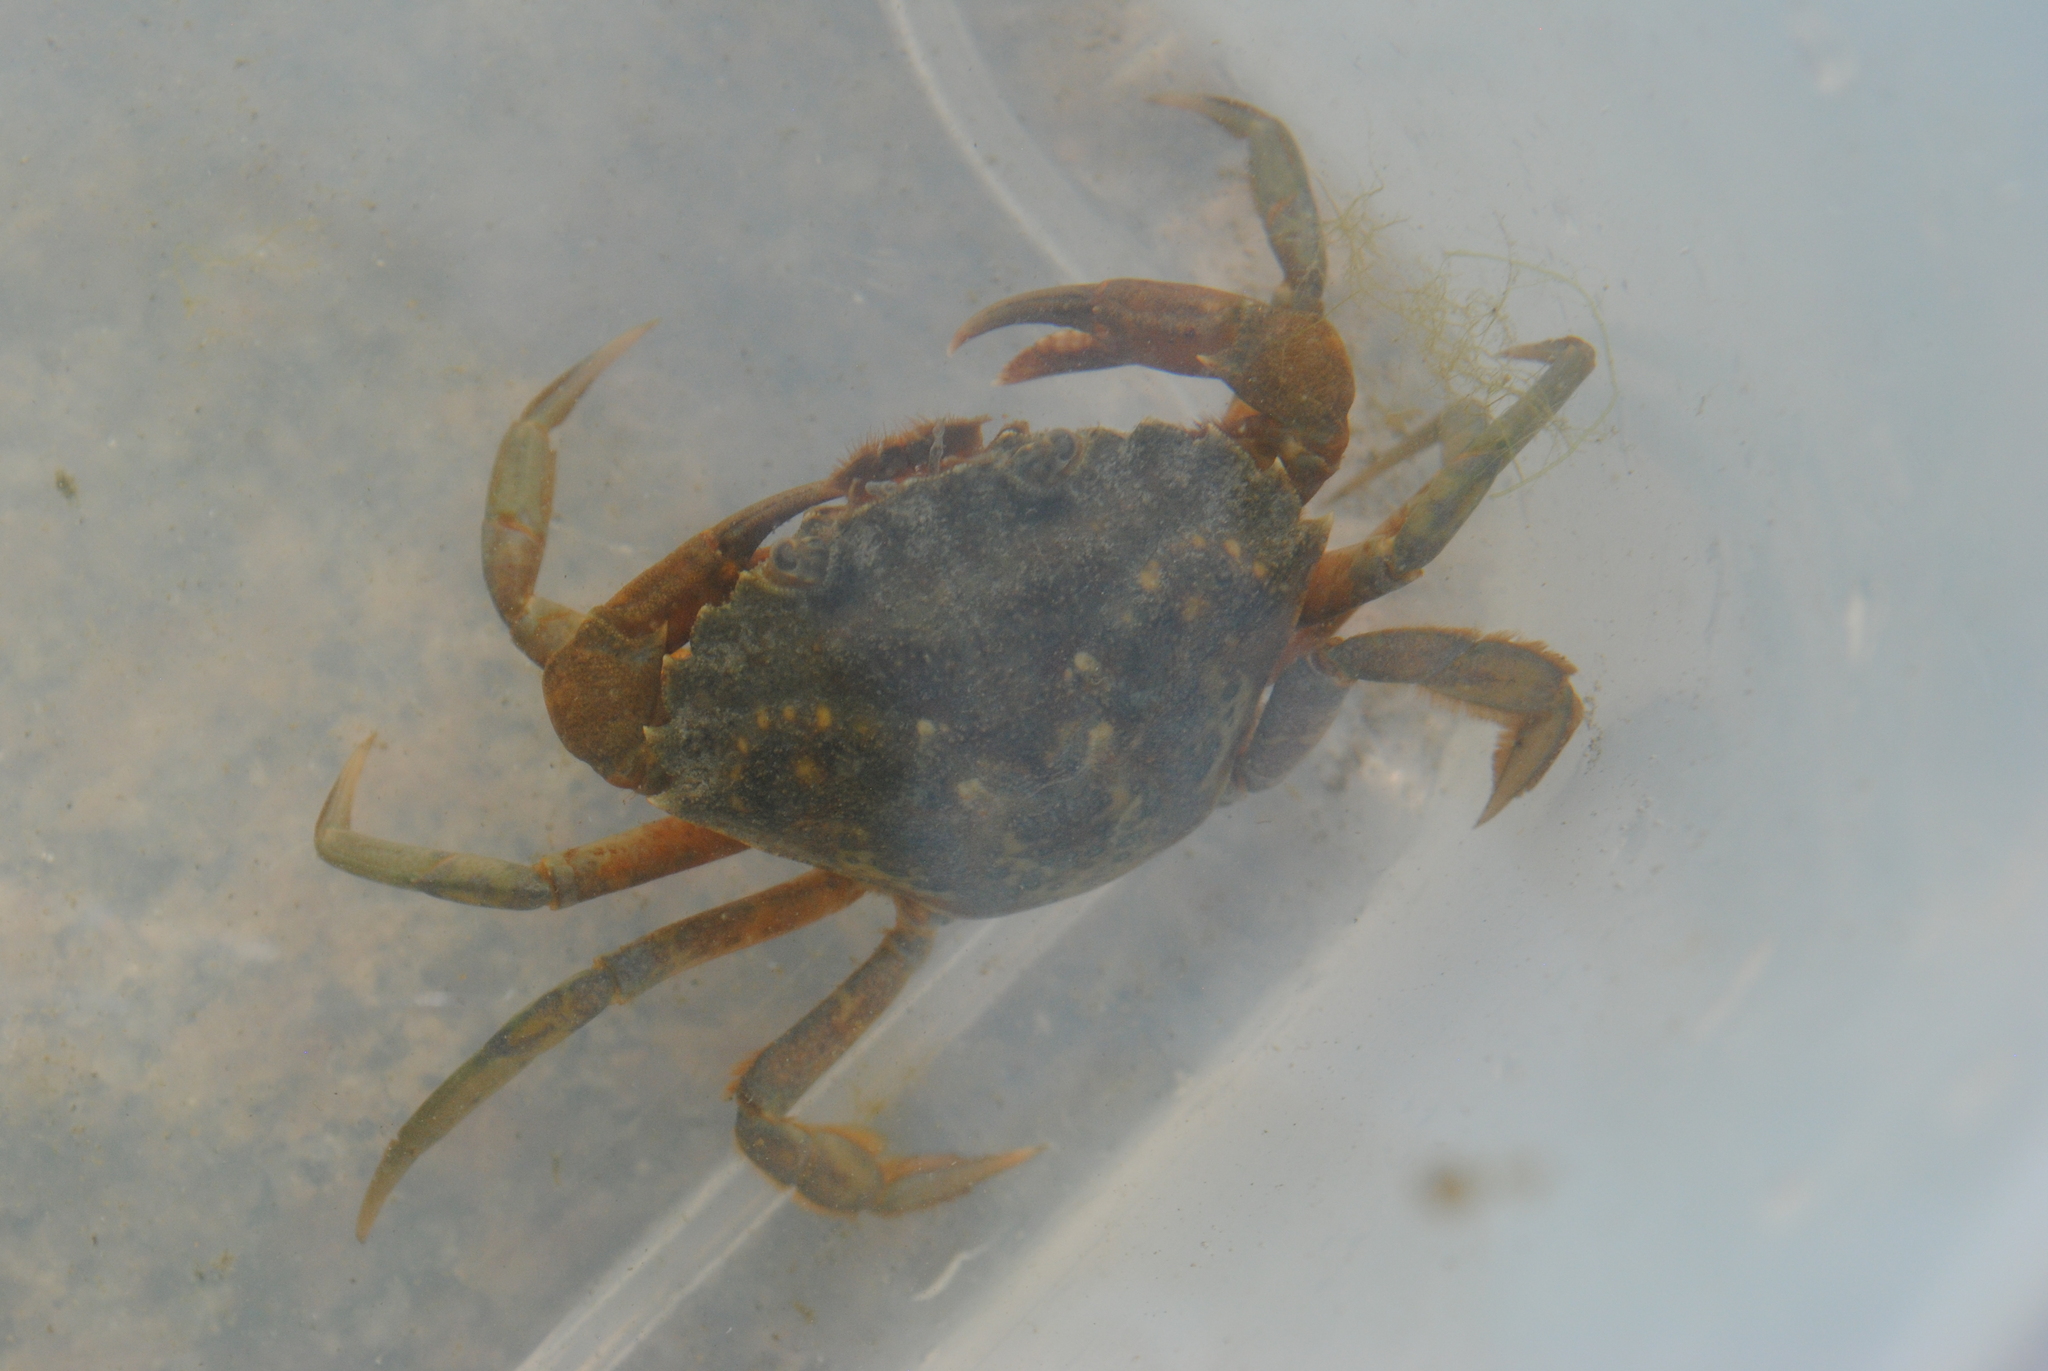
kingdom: Animalia
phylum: Arthropoda
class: Malacostraca
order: Decapoda
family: Carcinidae
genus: Carcinus
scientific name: Carcinus maenas
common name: European green crab
